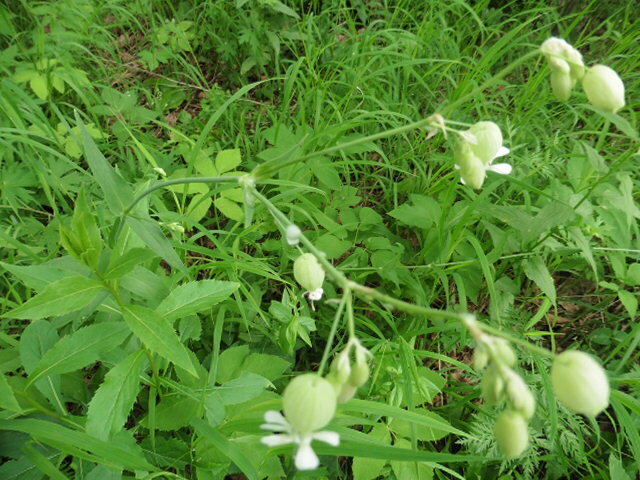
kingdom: Plantae
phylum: Tracheophyta
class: Magnoliopsida
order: Caryophyllales
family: Caryophyllaceae
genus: Silene
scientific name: Silene vulgaris
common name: Bladder campion
